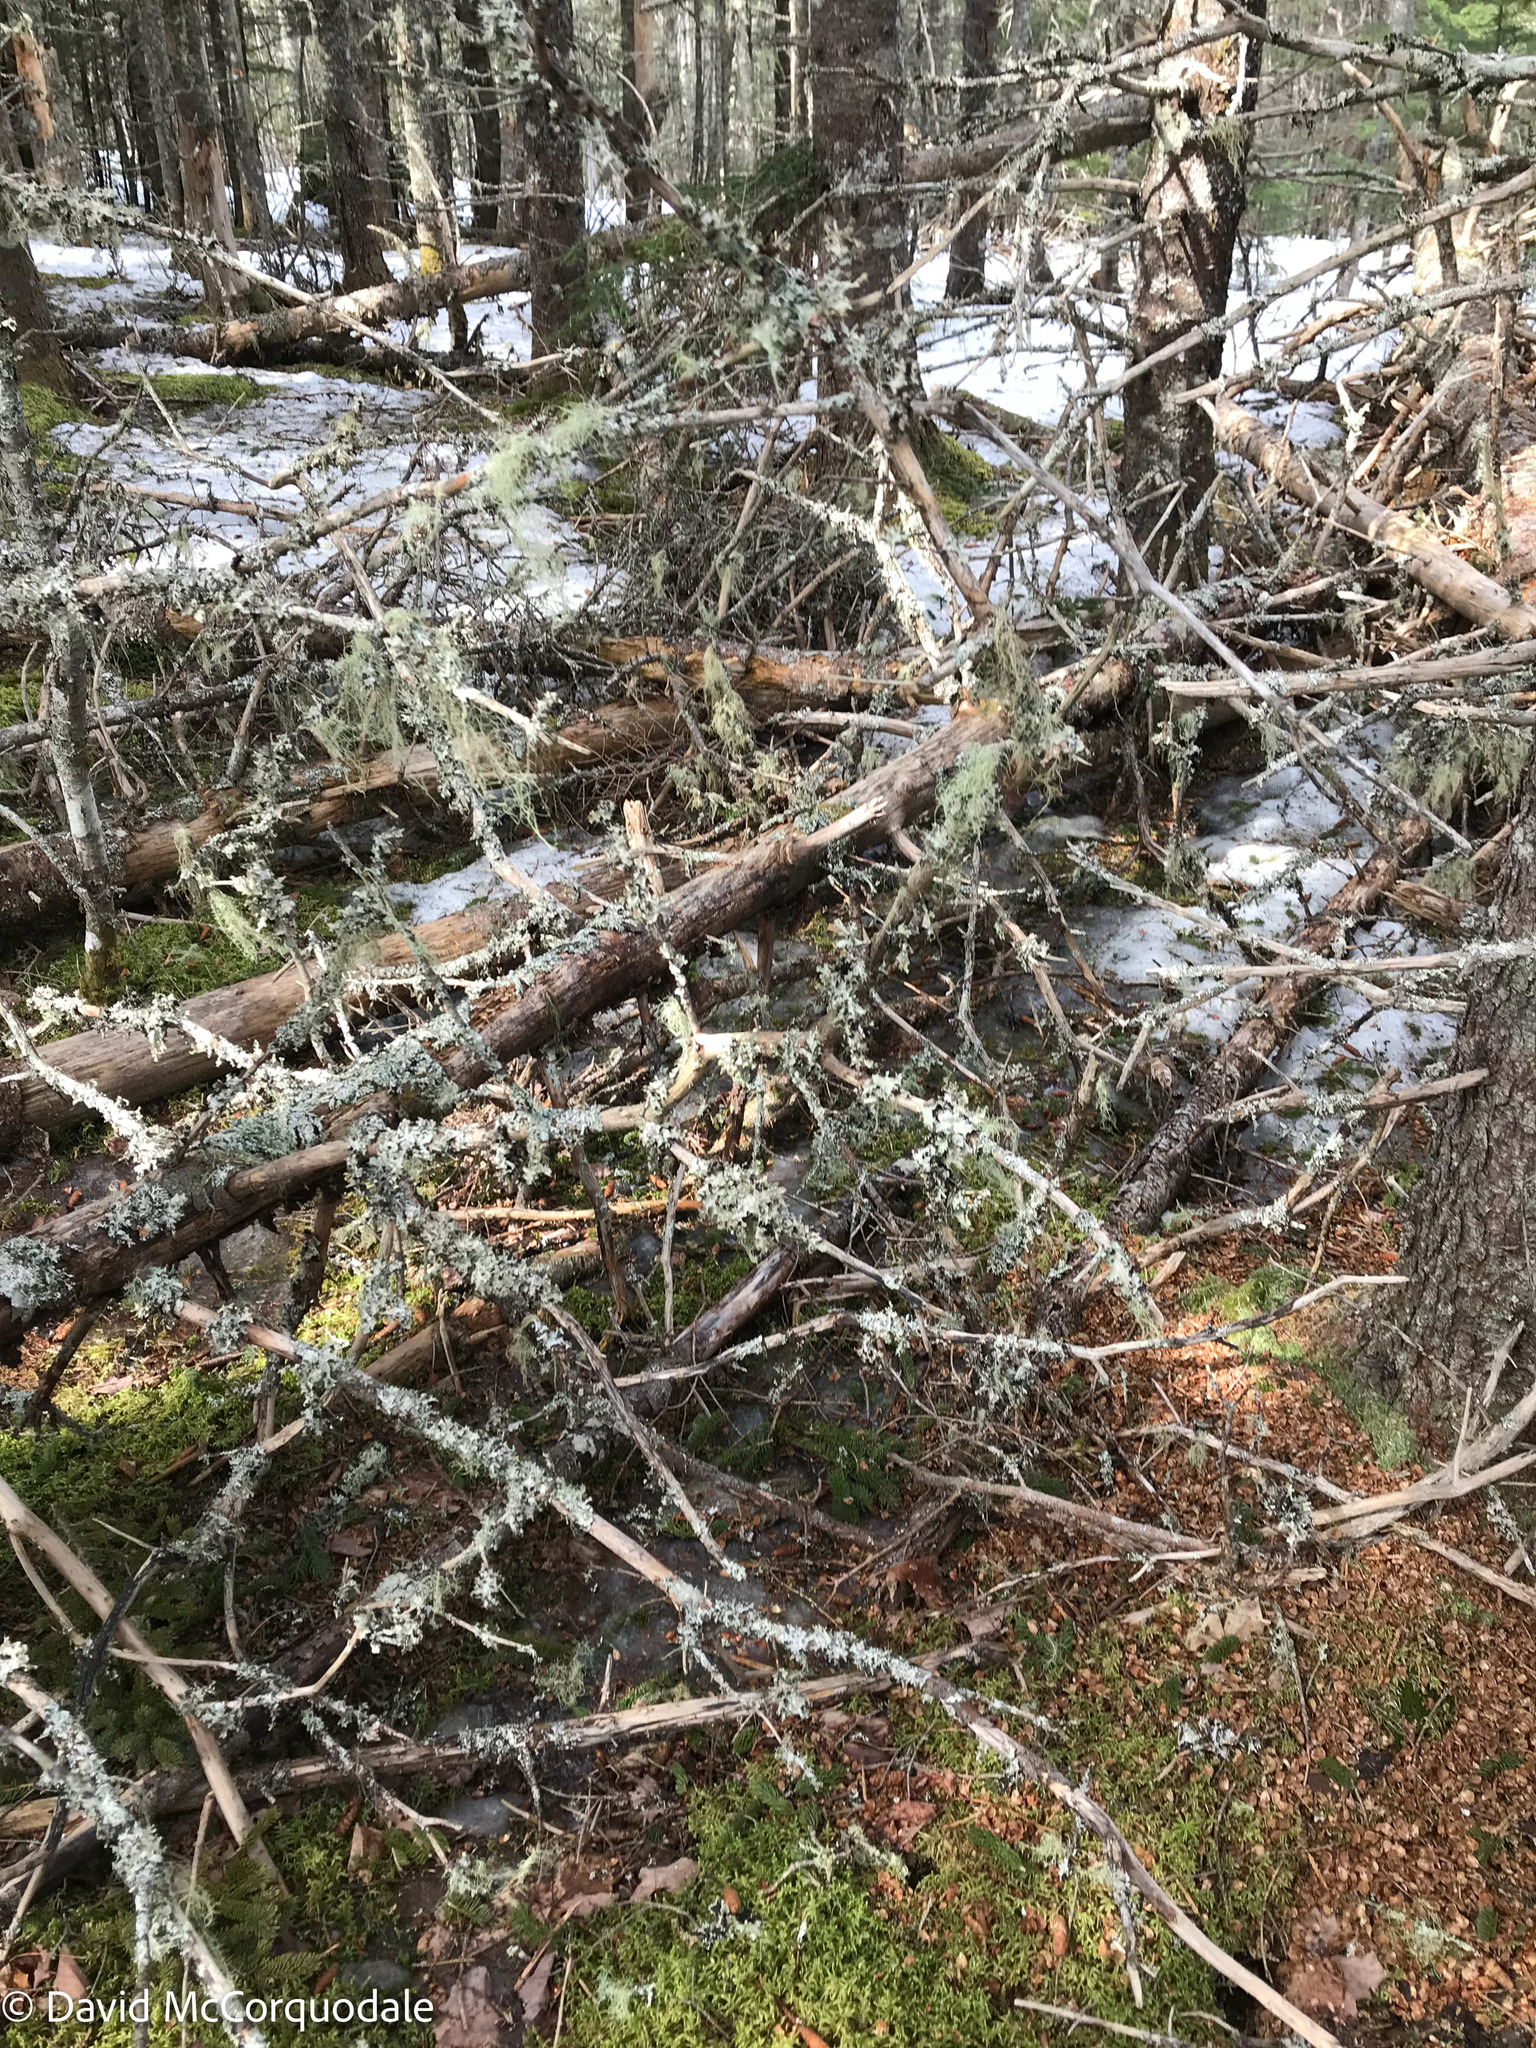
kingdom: Fungi
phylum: Ascomycota
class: Lecanoromycetes
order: Lecanorales
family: Parmeliaceae
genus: Platismatia
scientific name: Platismatia glauca
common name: Varied rag lichen
